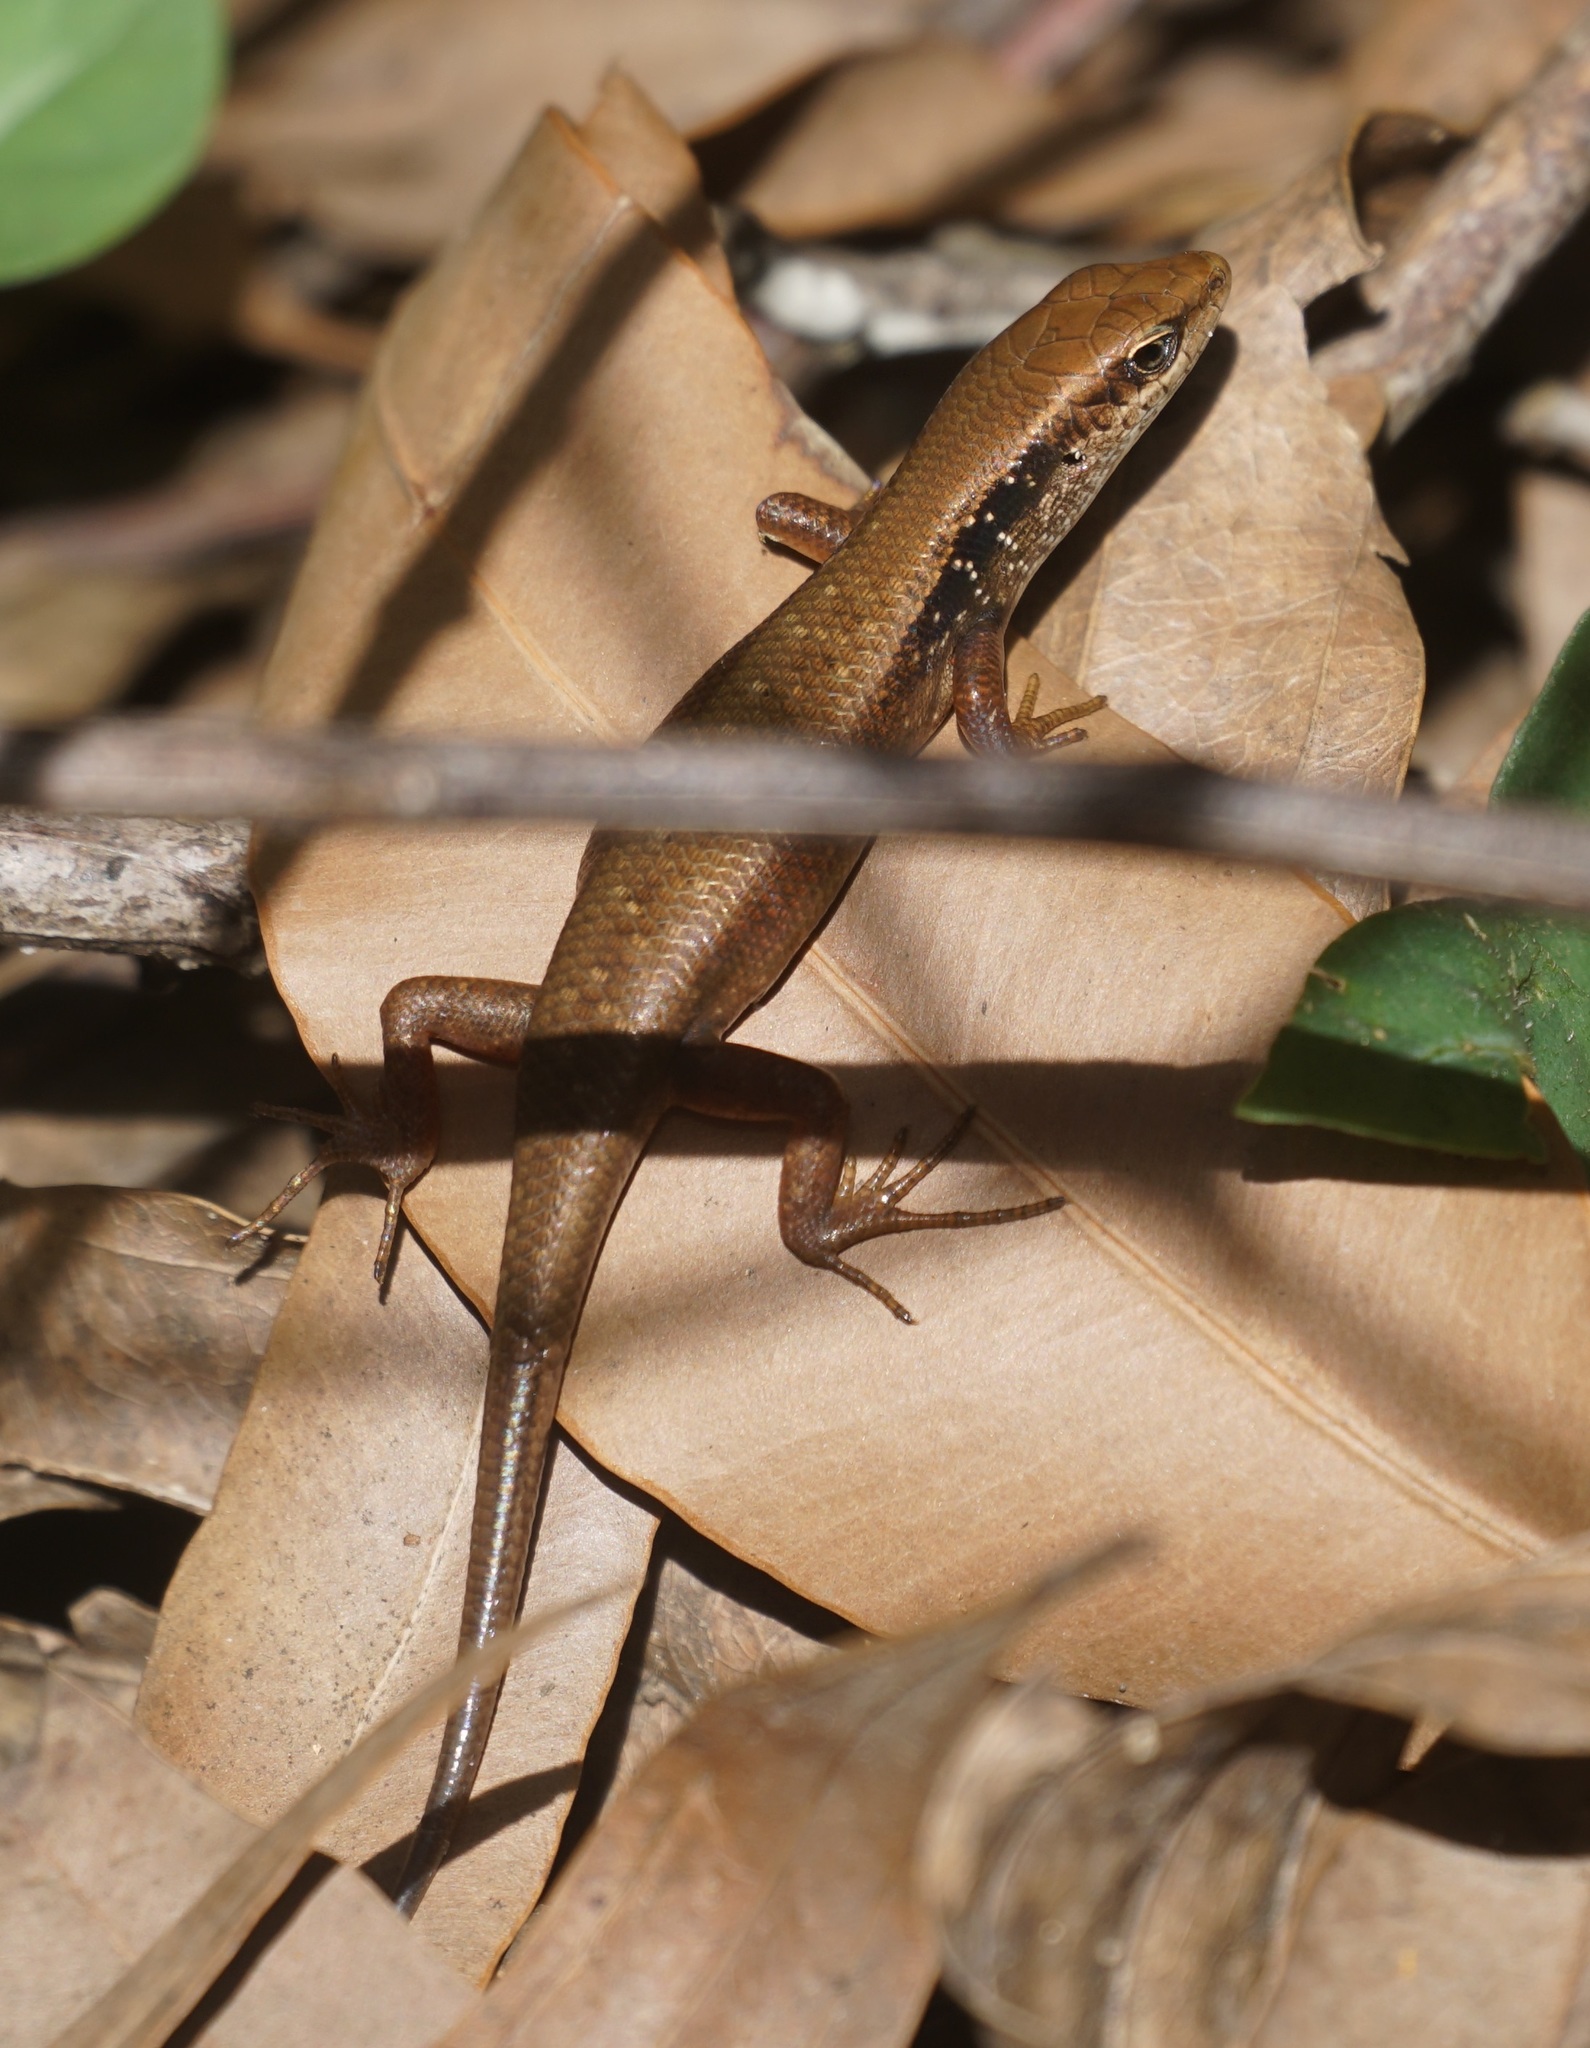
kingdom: Animalia
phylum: Chordata
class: Squamata
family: Scincidae
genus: Carlia
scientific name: Carlia longipes
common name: Closed-litter rainbow-skink
